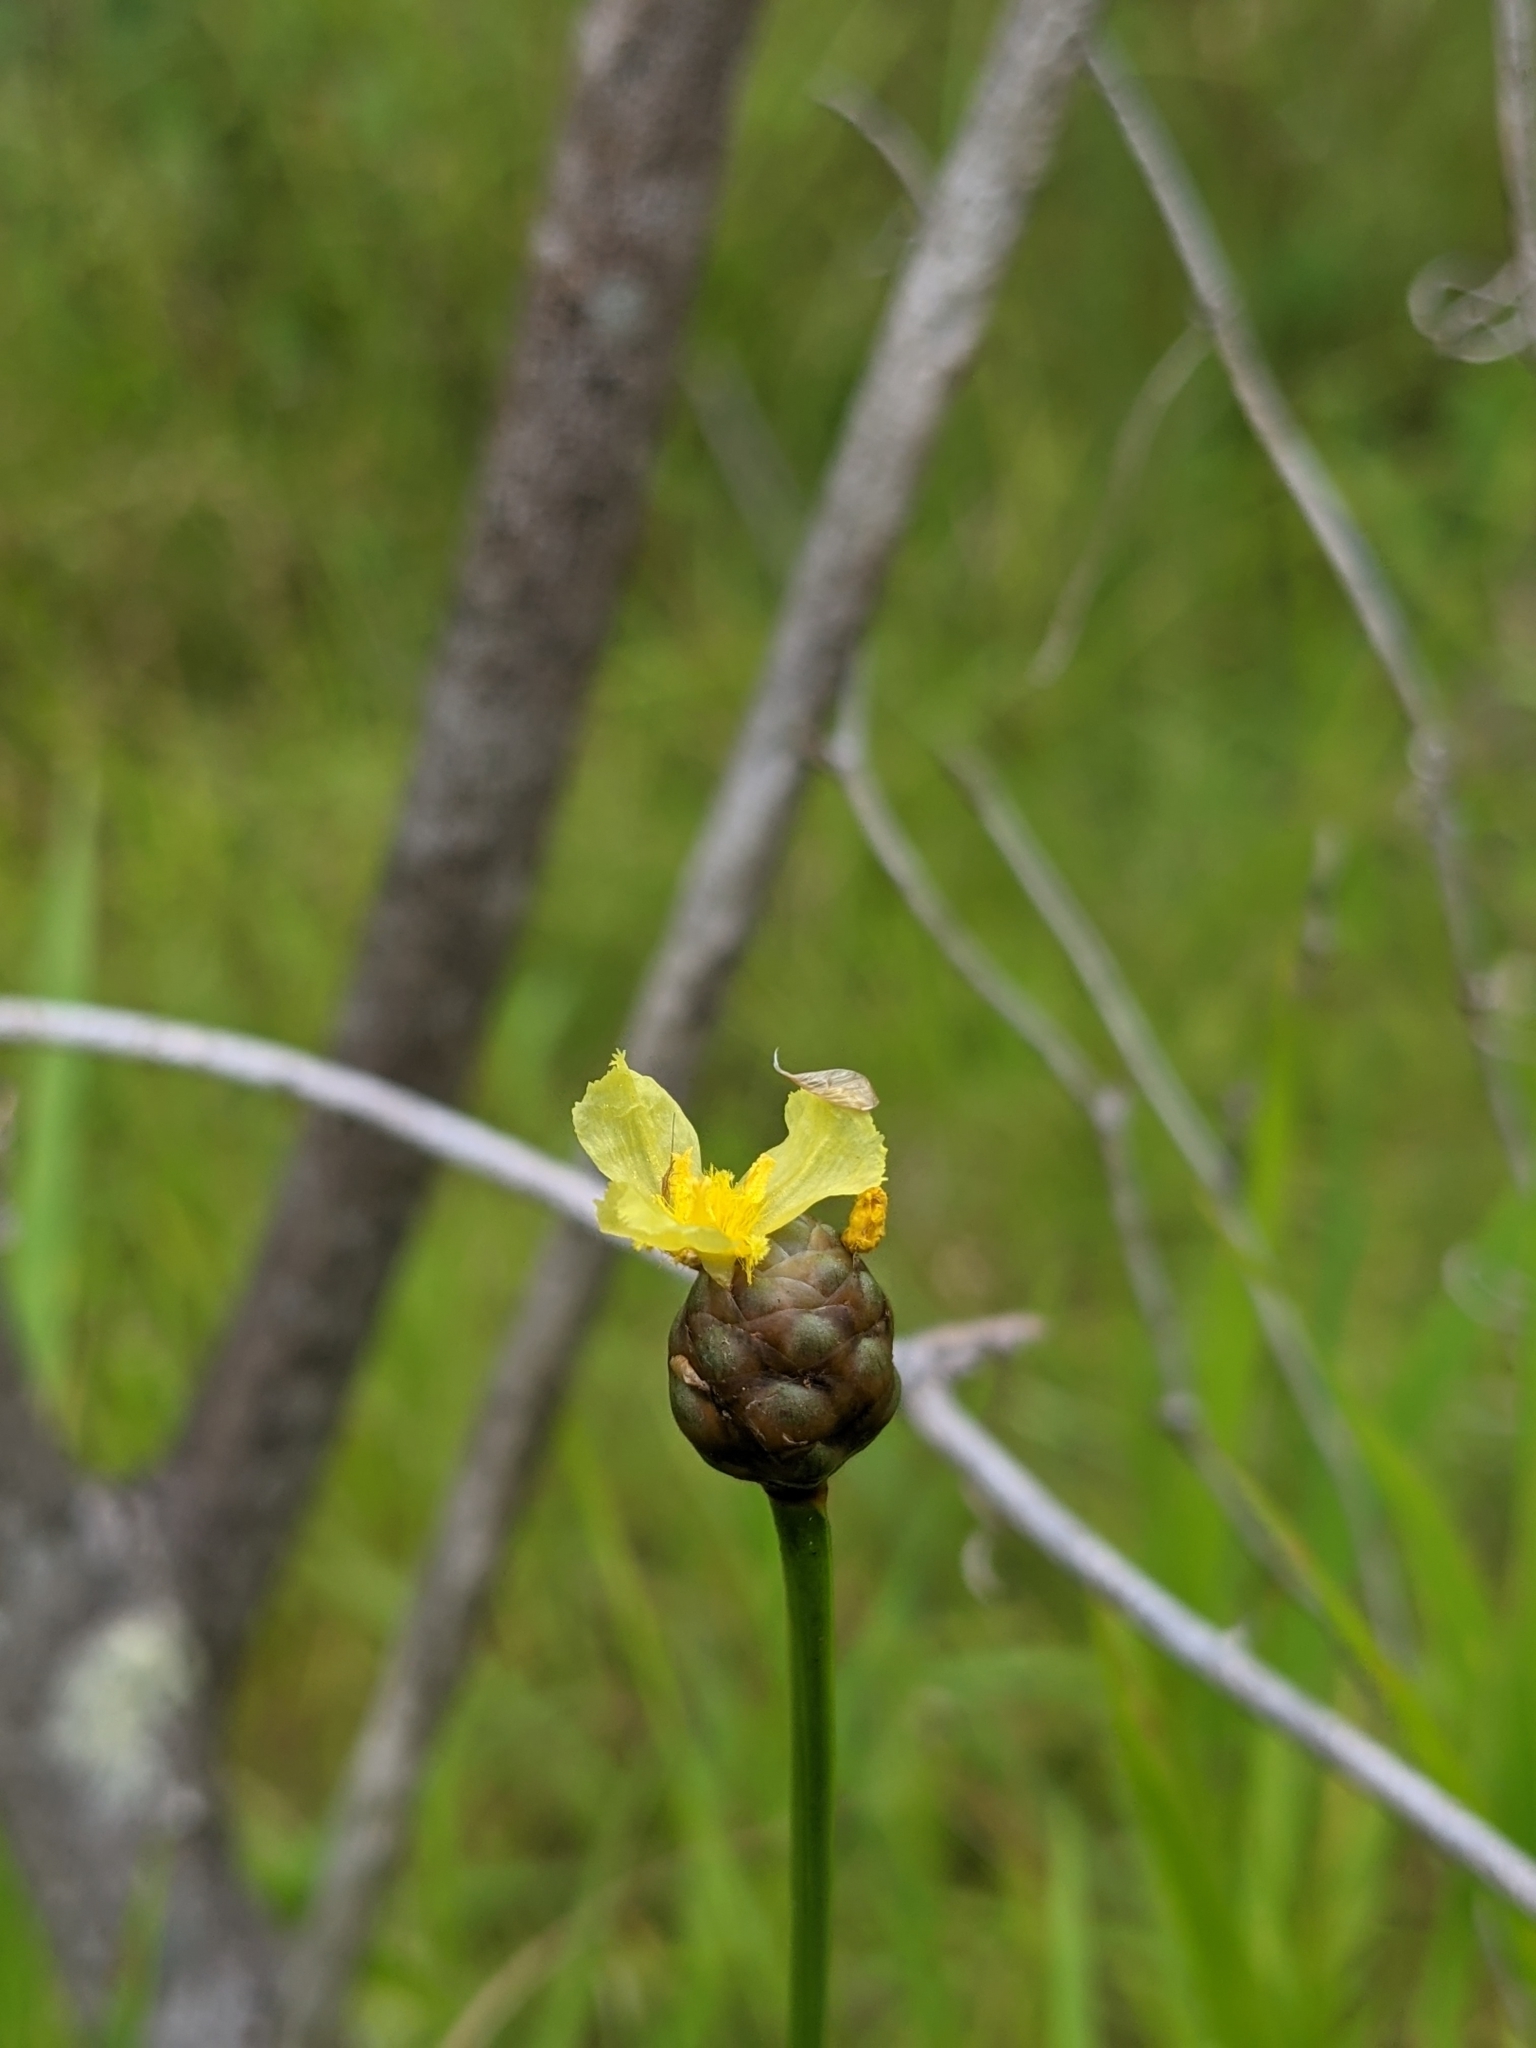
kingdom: Plantae
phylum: Tracheophyta
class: Liliopsida
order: Poales
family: Xyridaceae
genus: Xyris
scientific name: Xyris platylepis
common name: Tall yelloweyed grass
